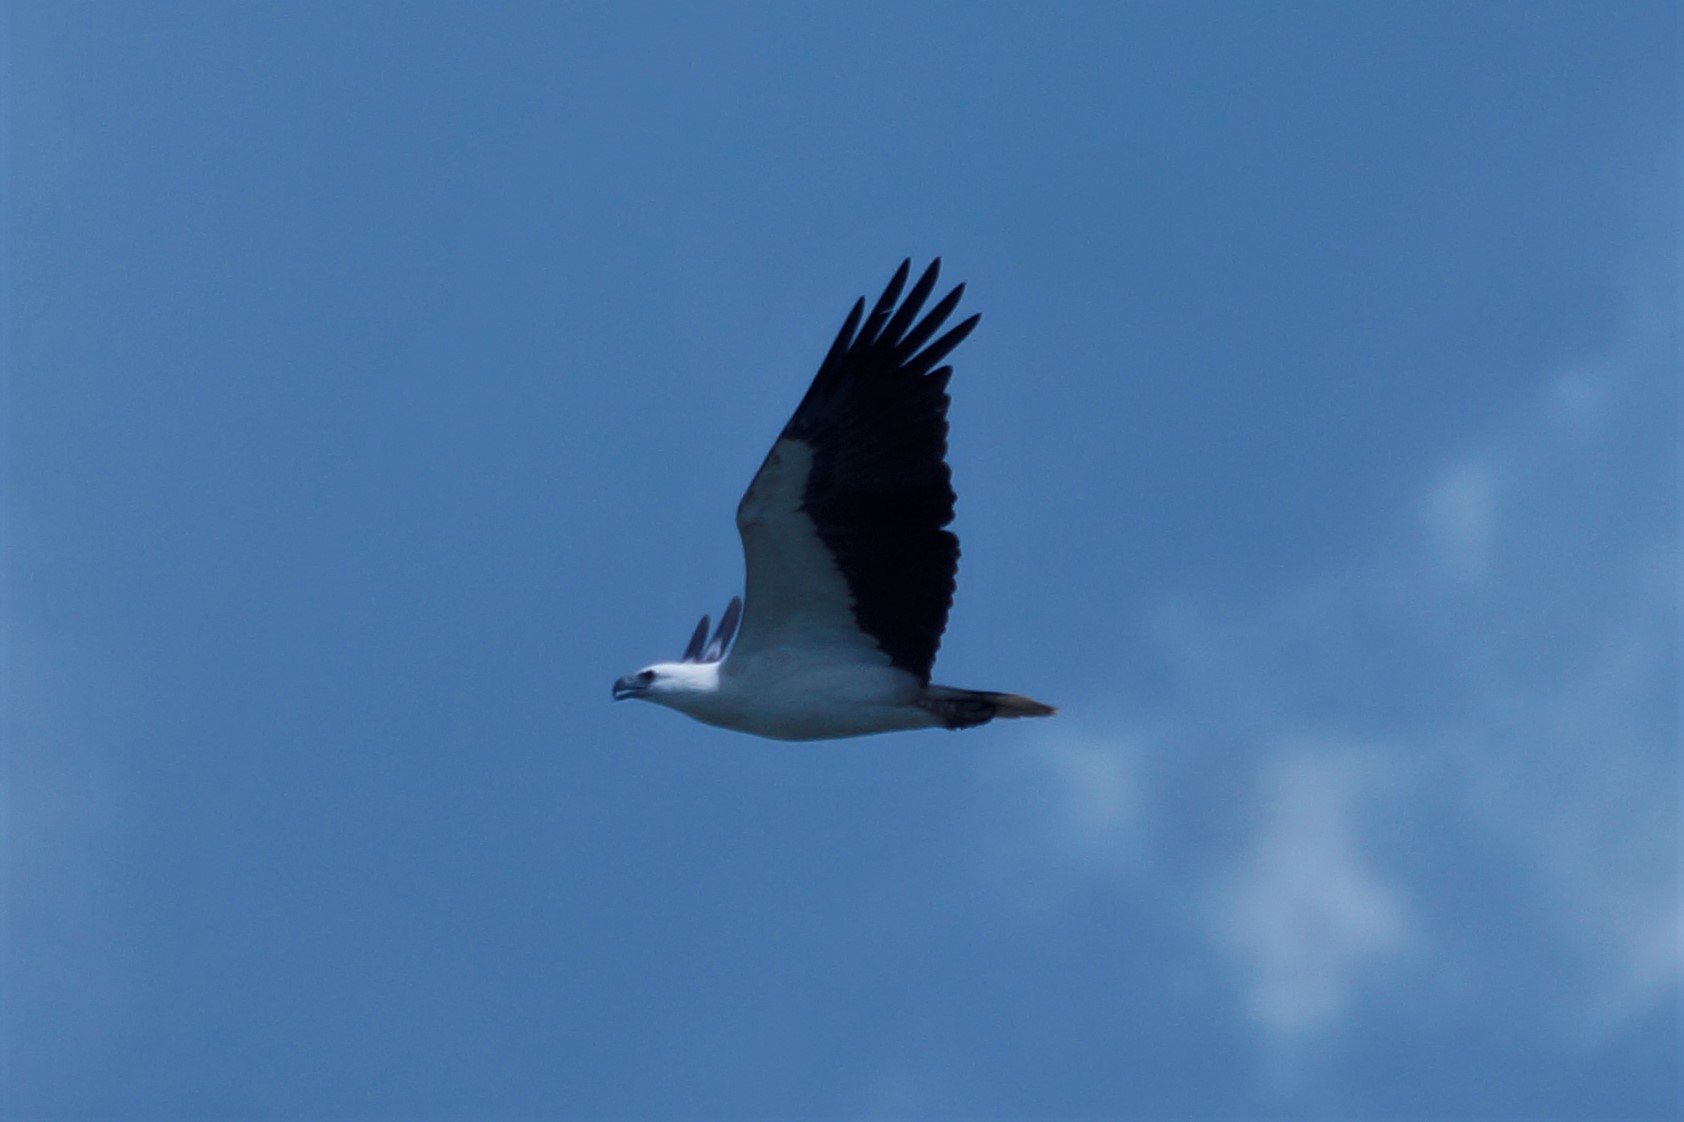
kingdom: Animalia
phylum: Chordata
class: Aves
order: Accipitriformes
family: Accipitridae
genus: Haliaeetus
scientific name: Haliaeetus leucogaster
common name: White-bellied sea eagle
